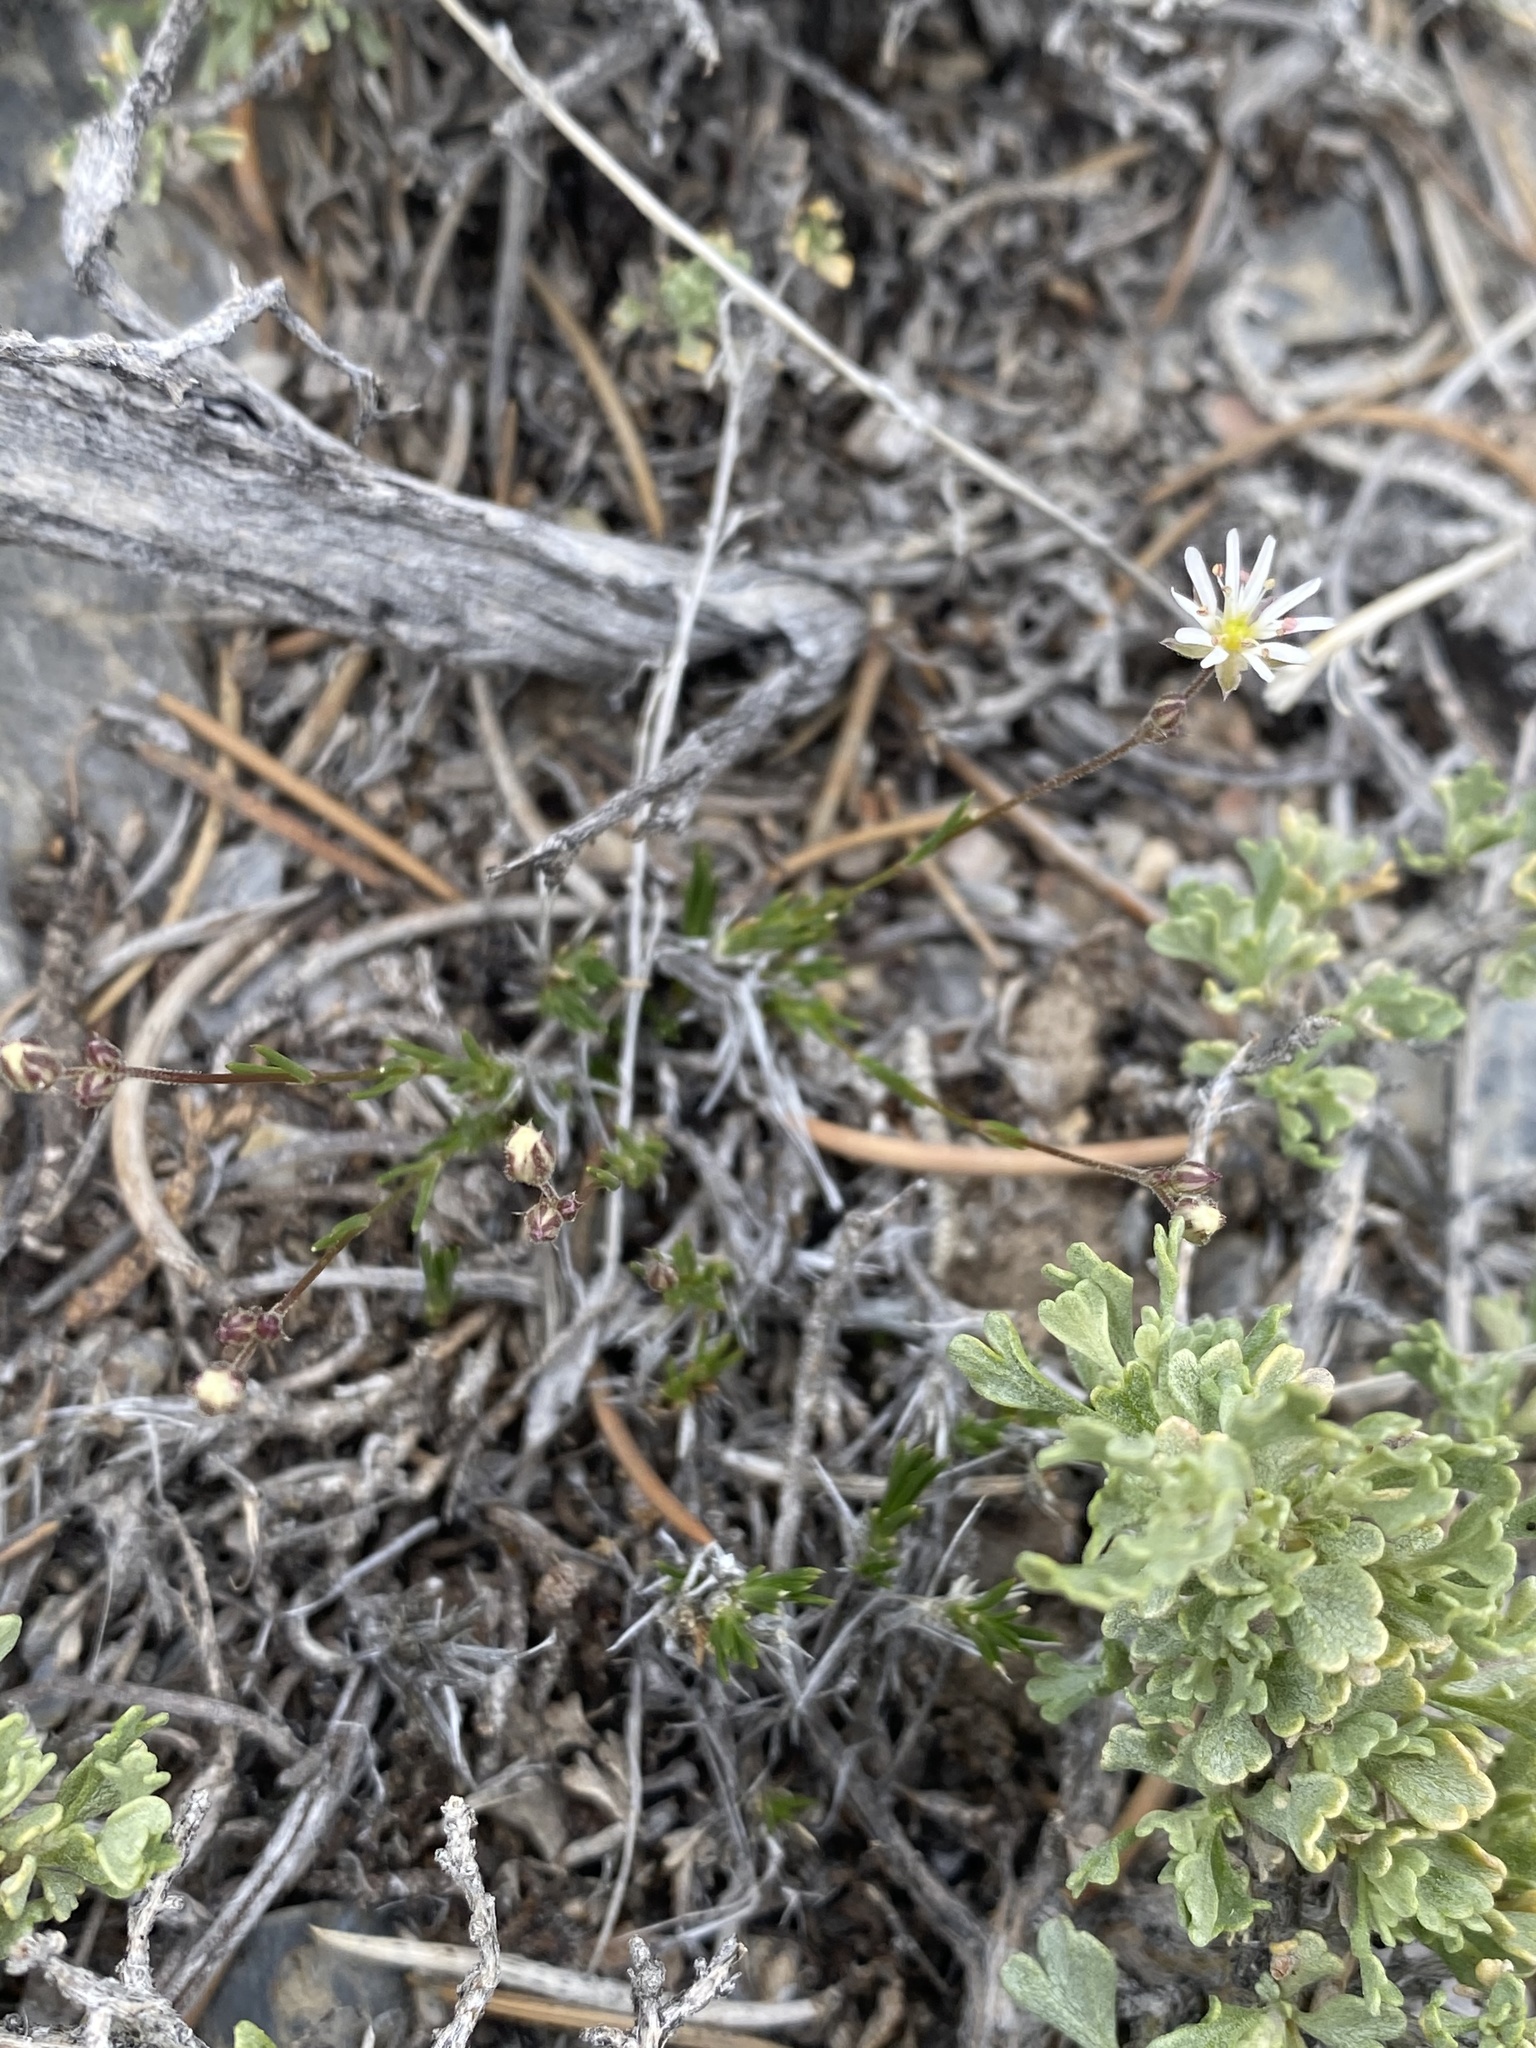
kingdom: Plantae
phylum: Tracheophyta
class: Magnoliopsida
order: Caryophyllales
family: Caryophyllaceae
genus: Eremogone
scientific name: Eremogone kingii
